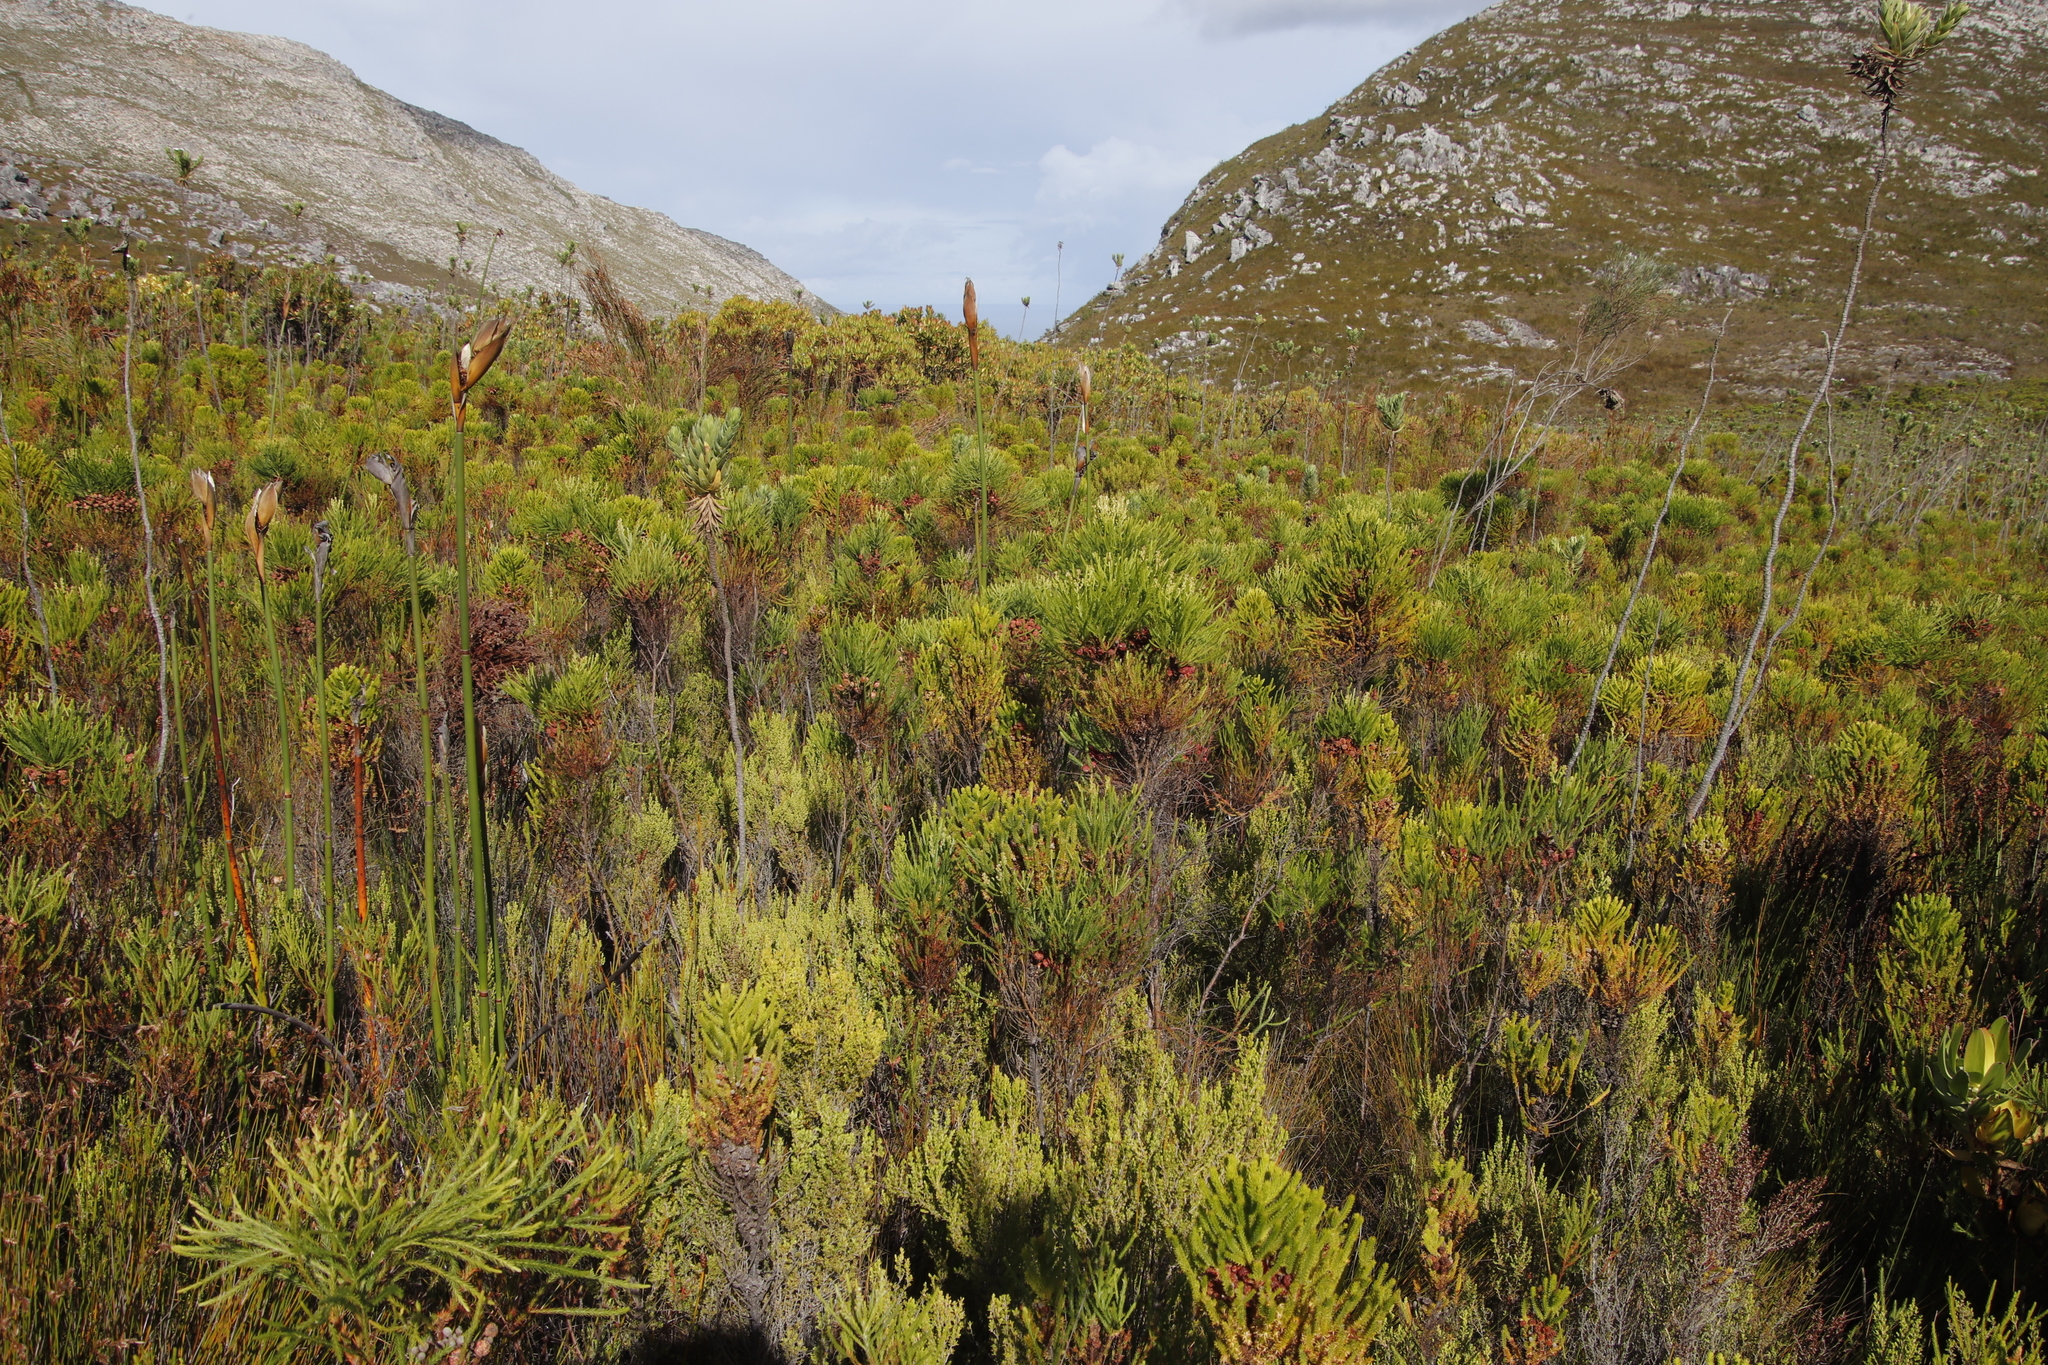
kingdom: Plantae
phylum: Tracheophyta
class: Magnoliopsida
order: Asterales
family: Asteraceae
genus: Osmitopsis
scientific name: Osmitopsis asteriscoides
